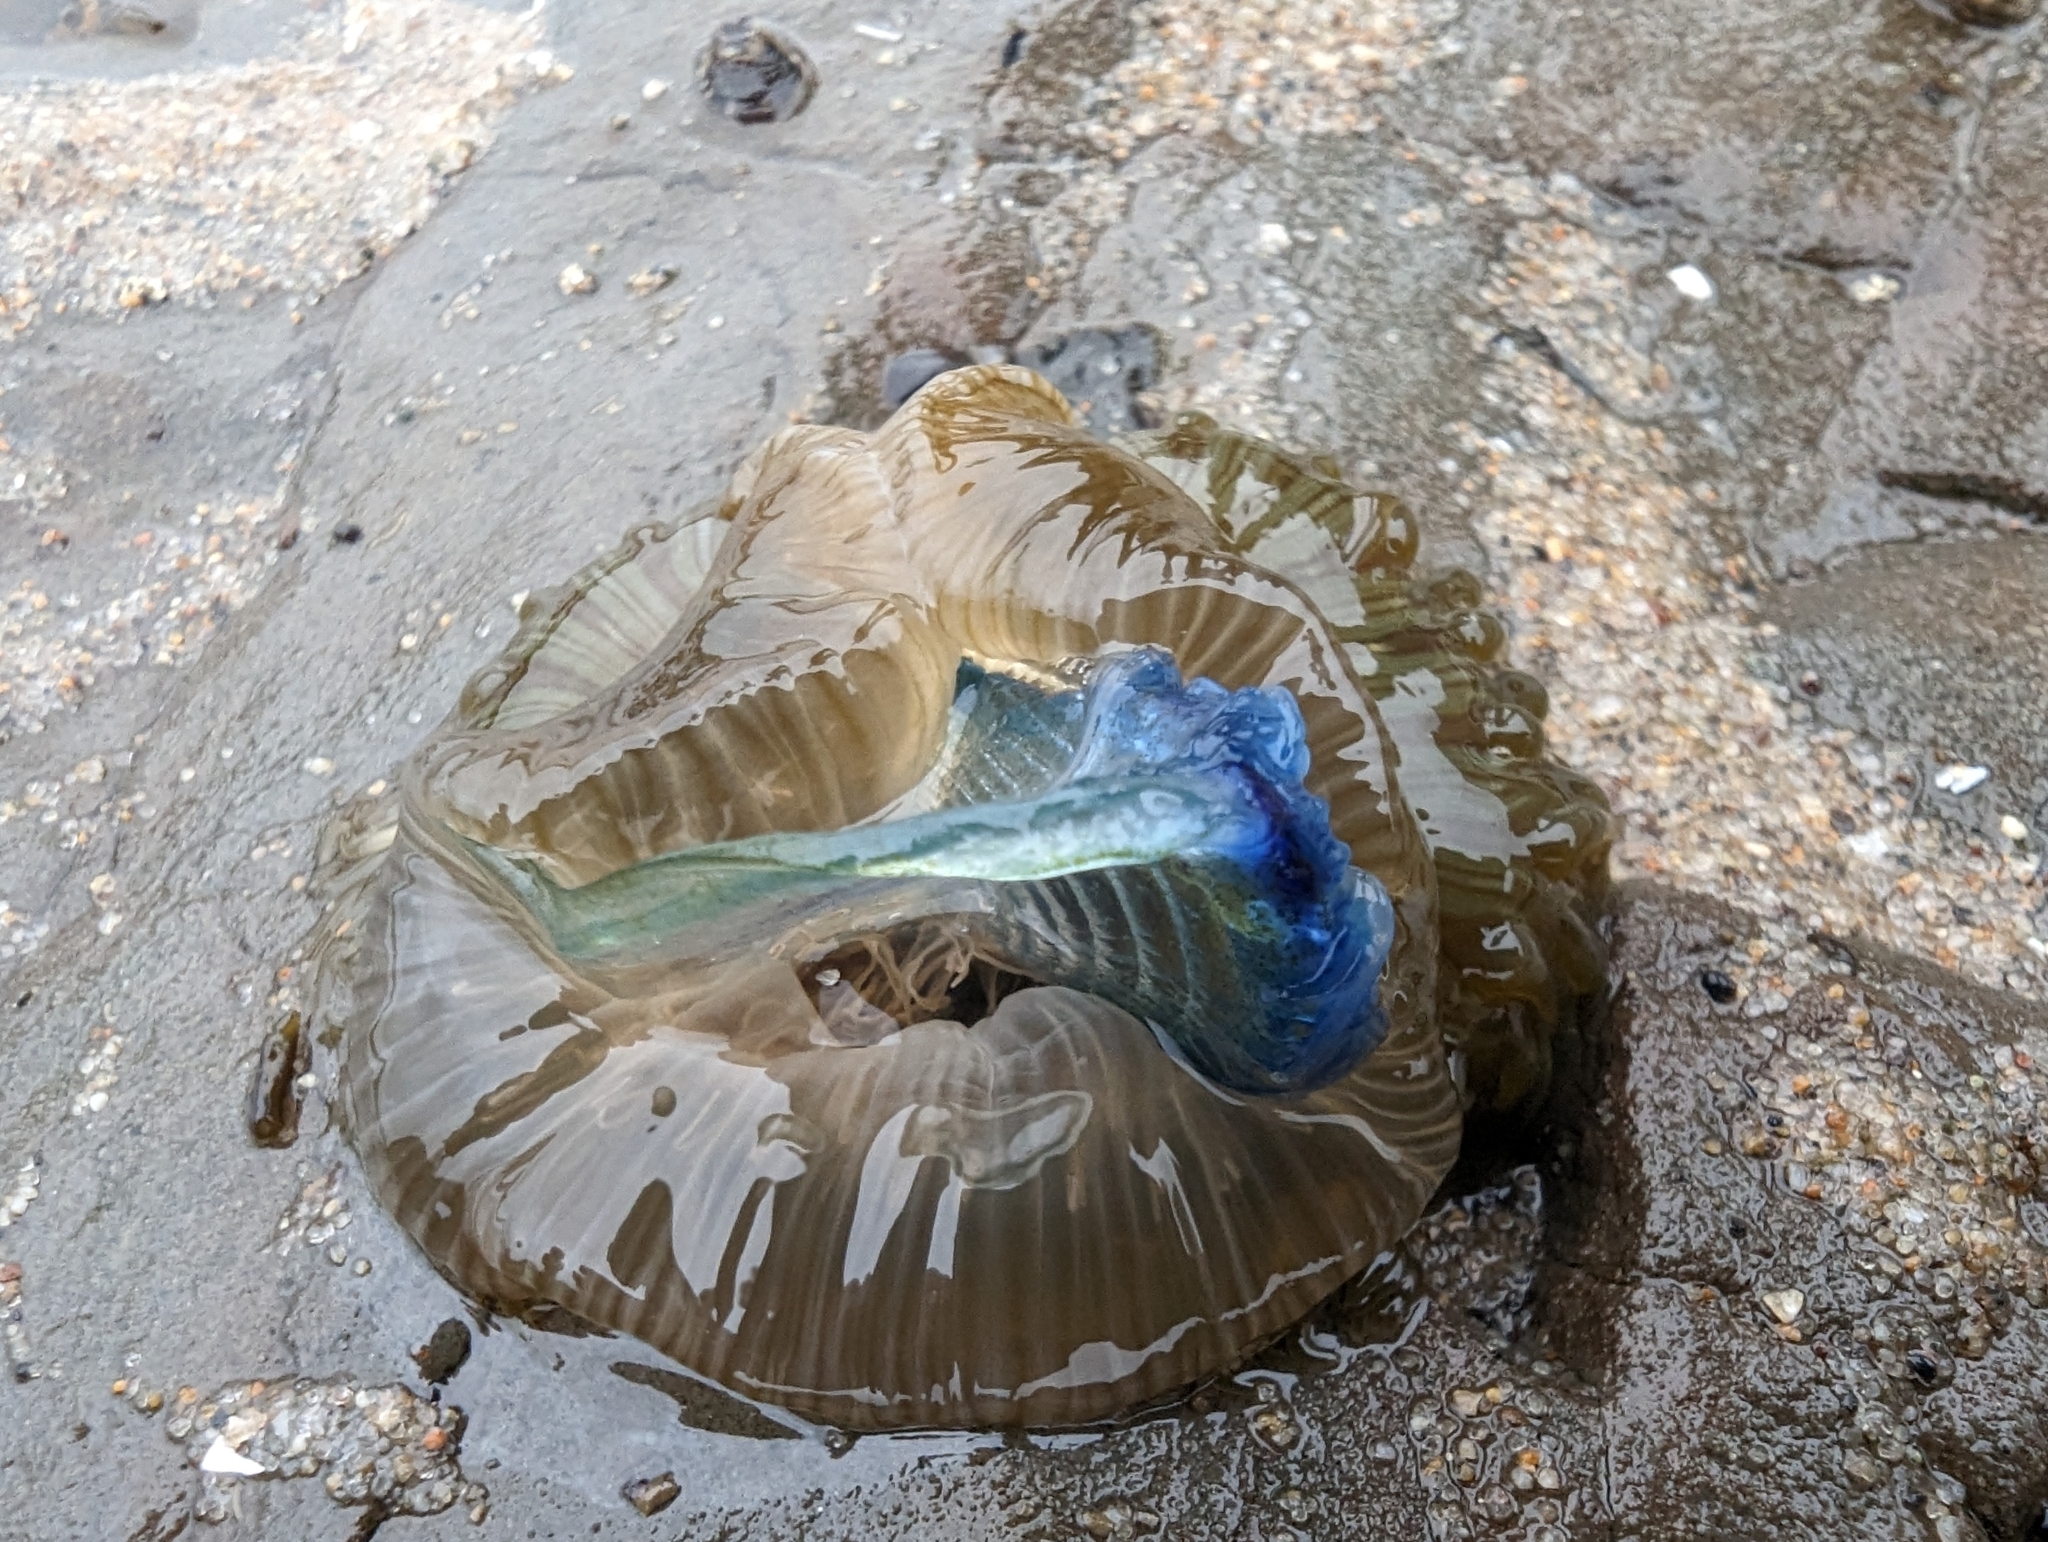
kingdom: Animalia
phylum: Cnidaria
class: Anthozoa
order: Actiniaria
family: Actiniidae
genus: Anthopleura
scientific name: Anthopleura sola
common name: Sun anemone
